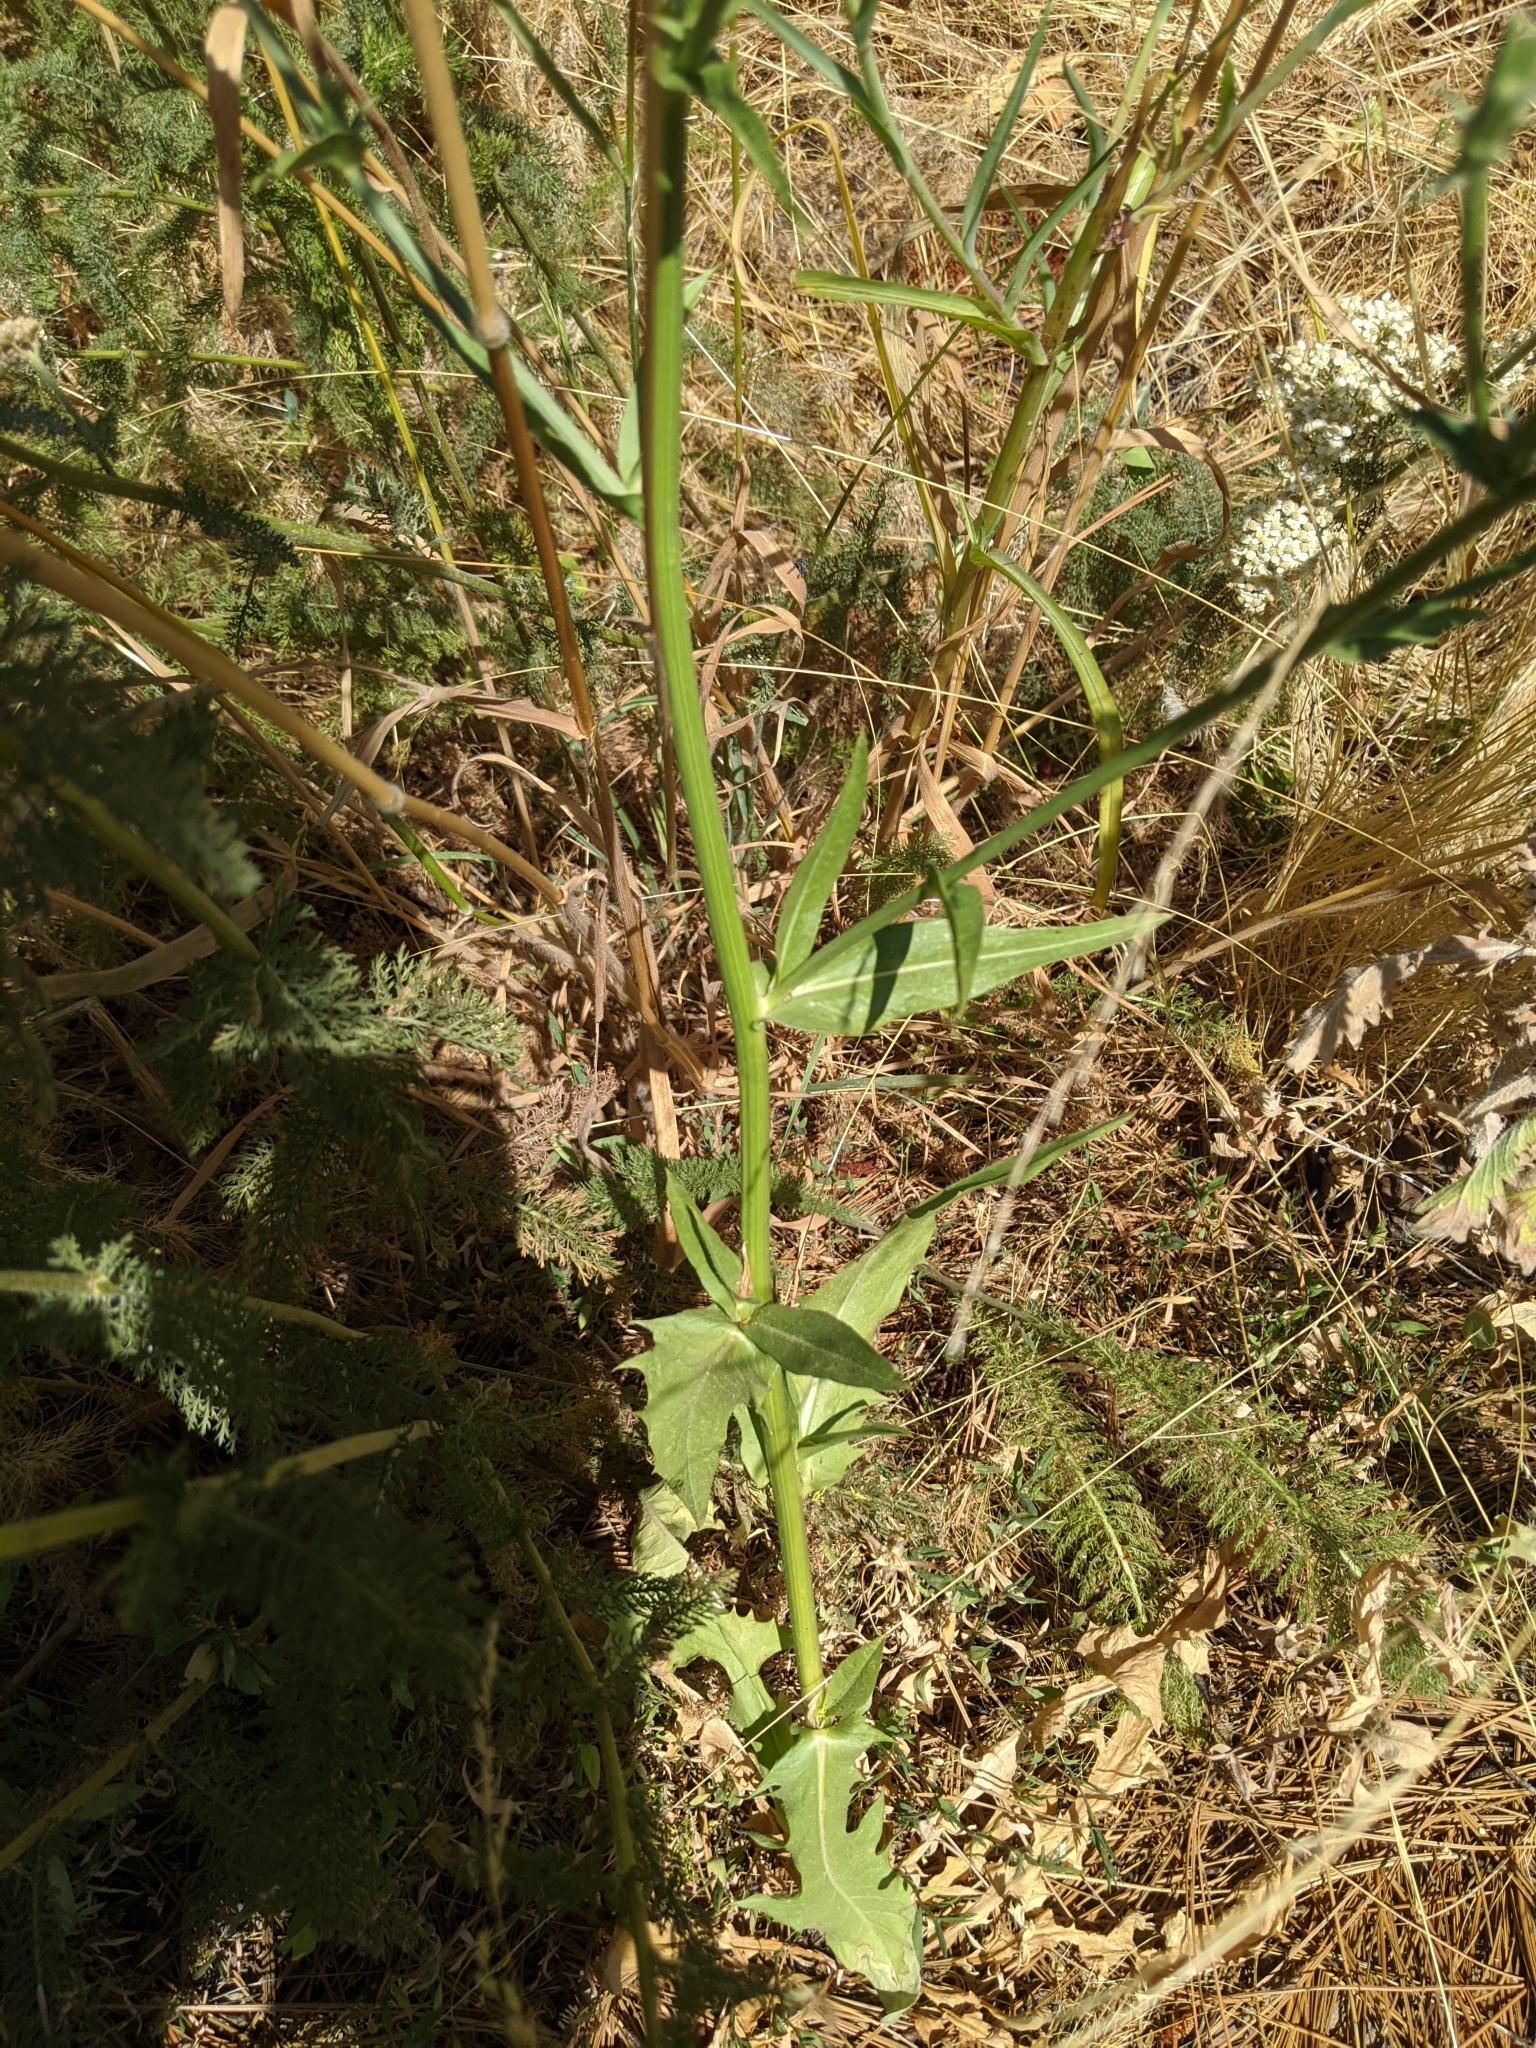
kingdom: Plantae
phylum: Tracheophyta
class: Magnoliopsida
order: Asterales
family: Asteraceae
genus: Cichorium
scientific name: Cichorium intybus
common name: Chicory
